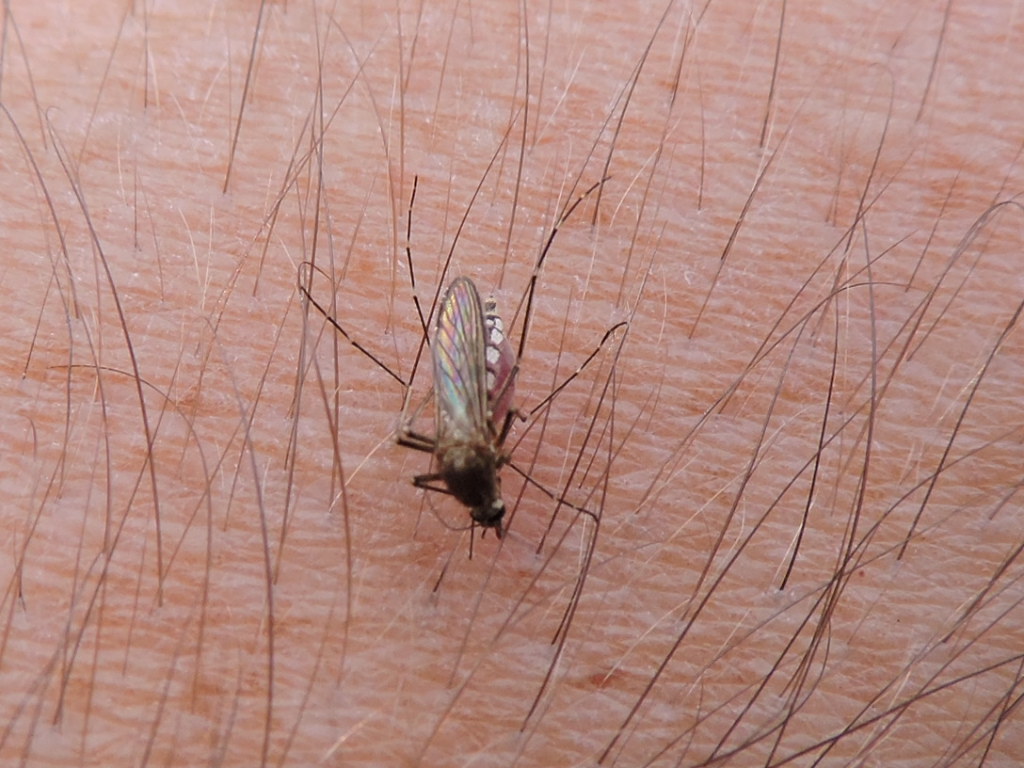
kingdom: Animalia
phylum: Arthropoda
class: Insecta
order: Diptera
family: Culicidae
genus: Aedes
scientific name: Aedes vexans
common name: Inland floodwater mosquito
